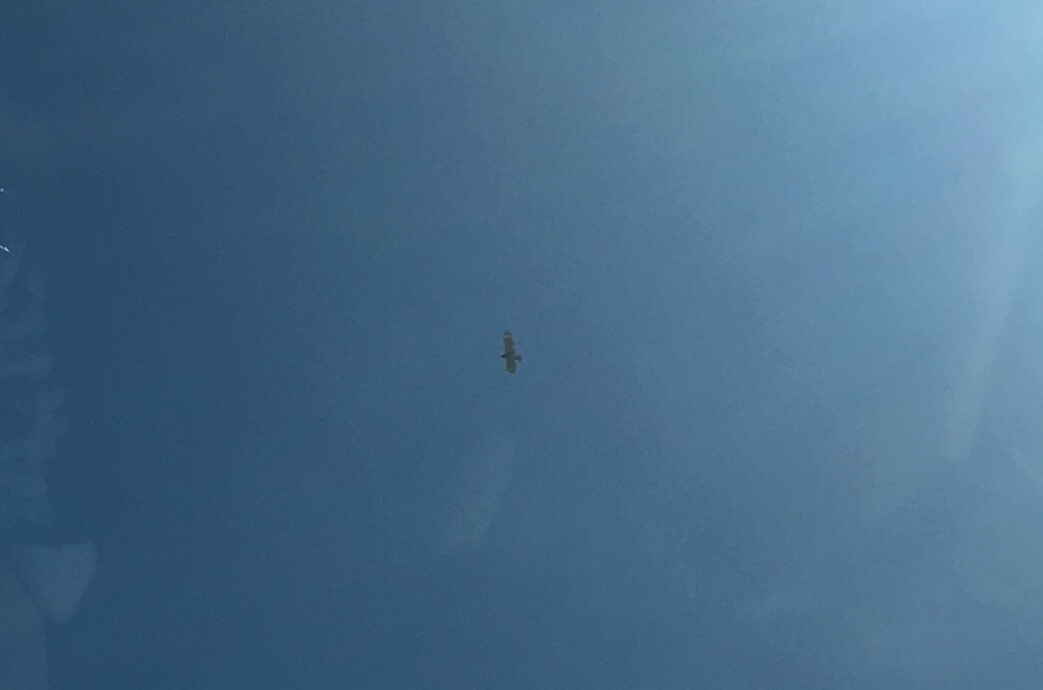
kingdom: Animalia
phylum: Chordata
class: Aves
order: Accipitriformes
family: Accipitridae
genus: Buteo
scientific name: Buteo lineatus
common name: Red-shouldered hawk
